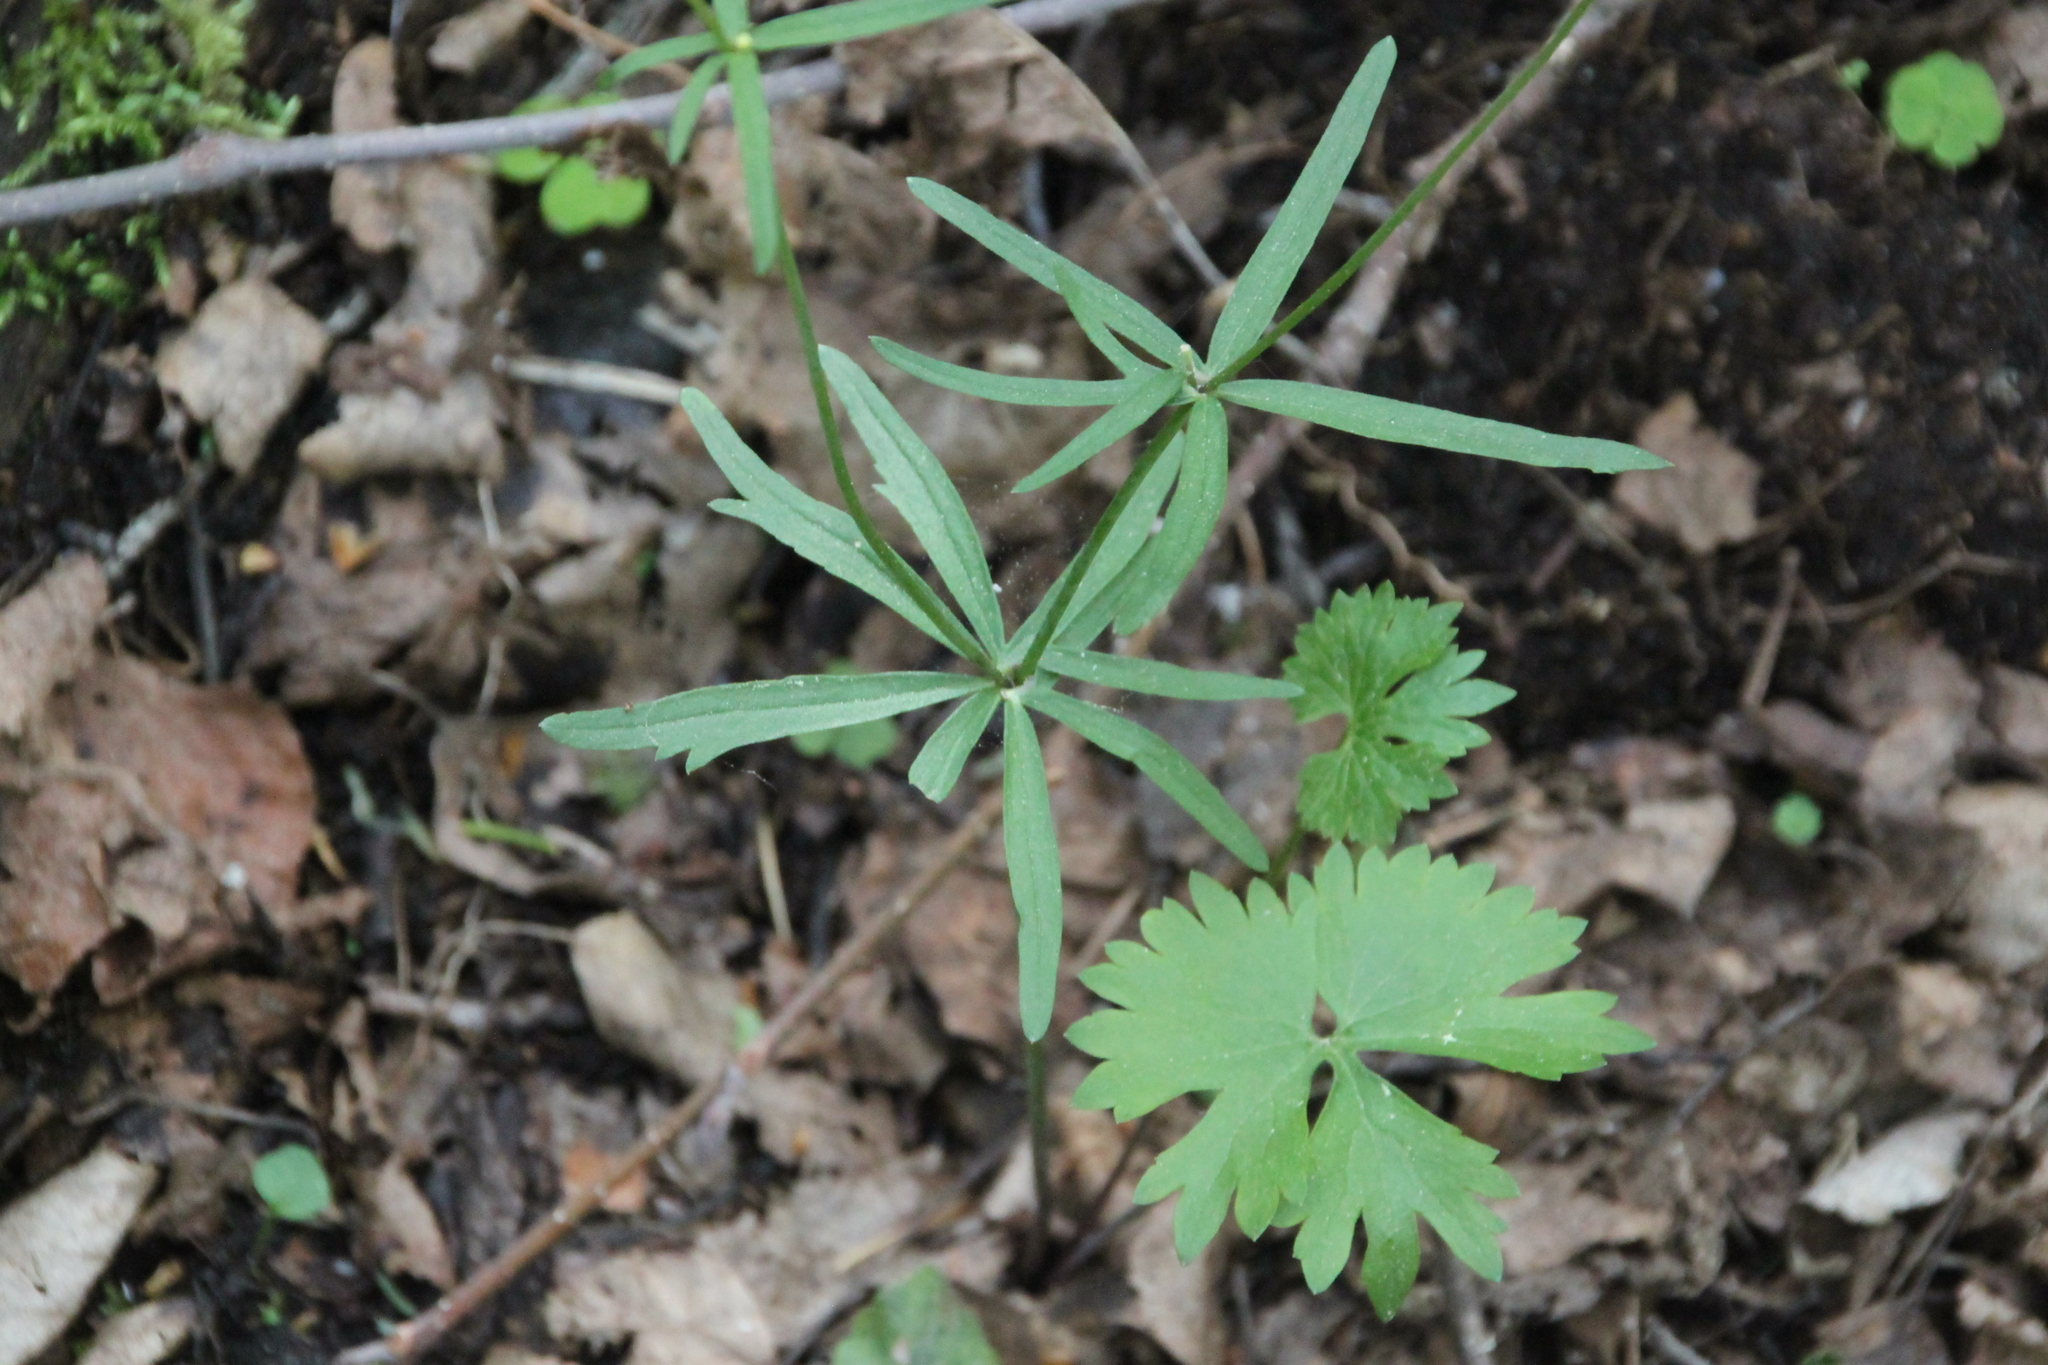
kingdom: Plantae
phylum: Tracheophyta
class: Magnoliopsida
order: Ranunculales
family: Ranunculaceae
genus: Ranunculus
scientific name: Ranunculus fallax
